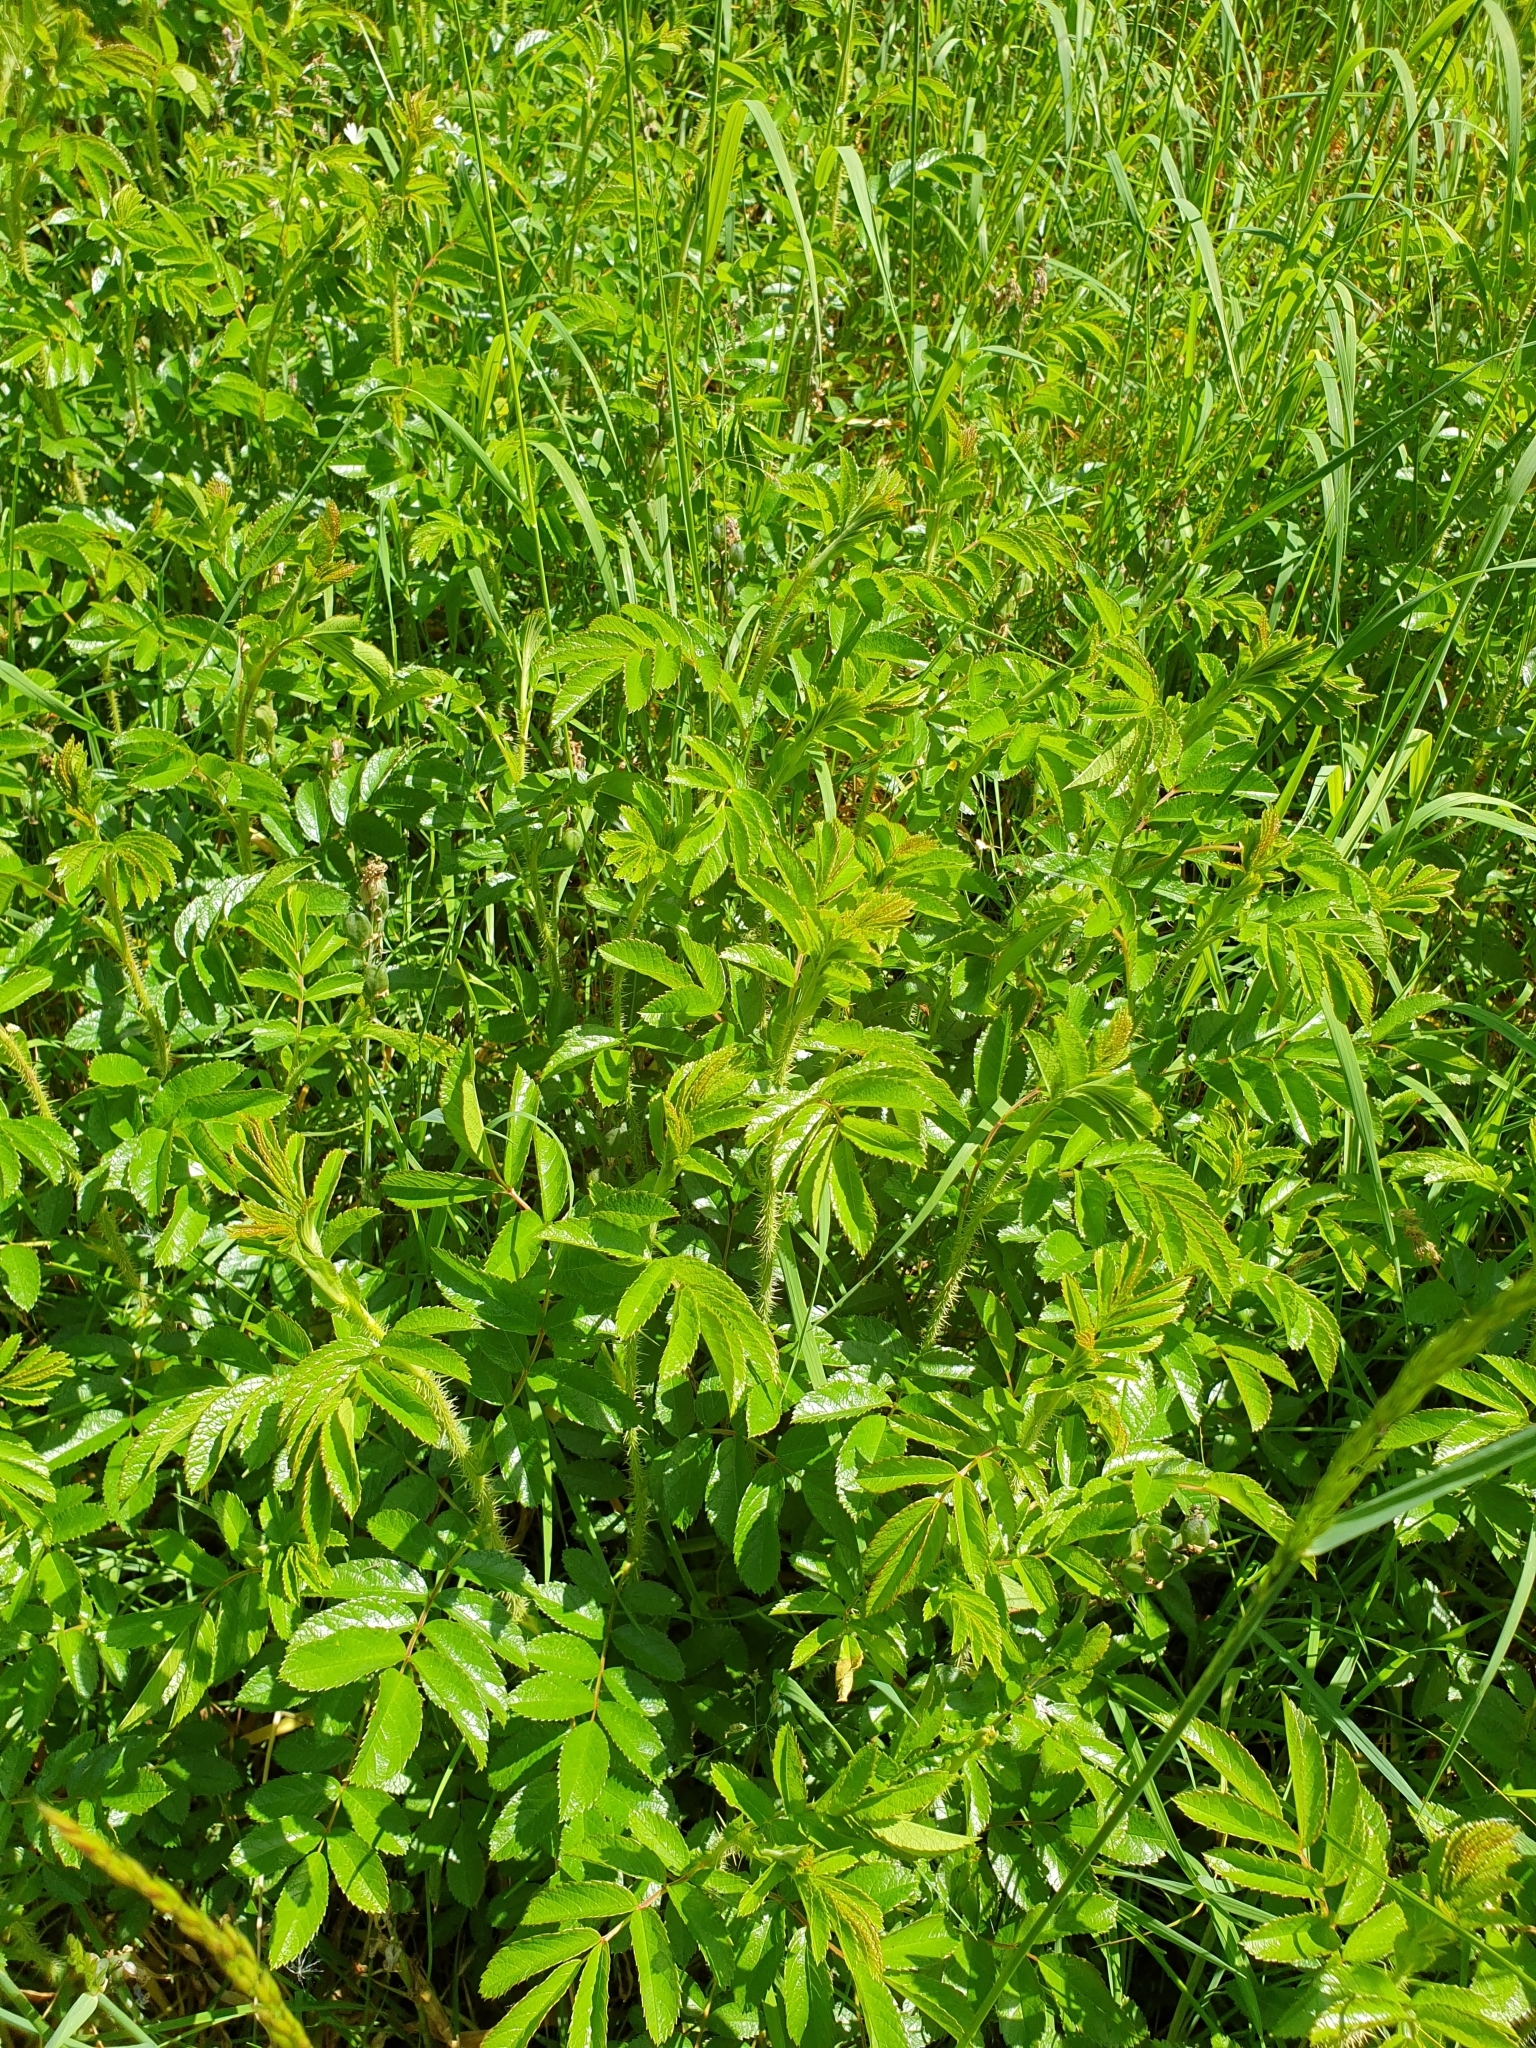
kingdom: Plantae
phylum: Tracheophyta
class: Magnoliopsida
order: Rosales
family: Rosaceae
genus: Rosa
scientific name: Rosa rugosa
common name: Japanese rose
